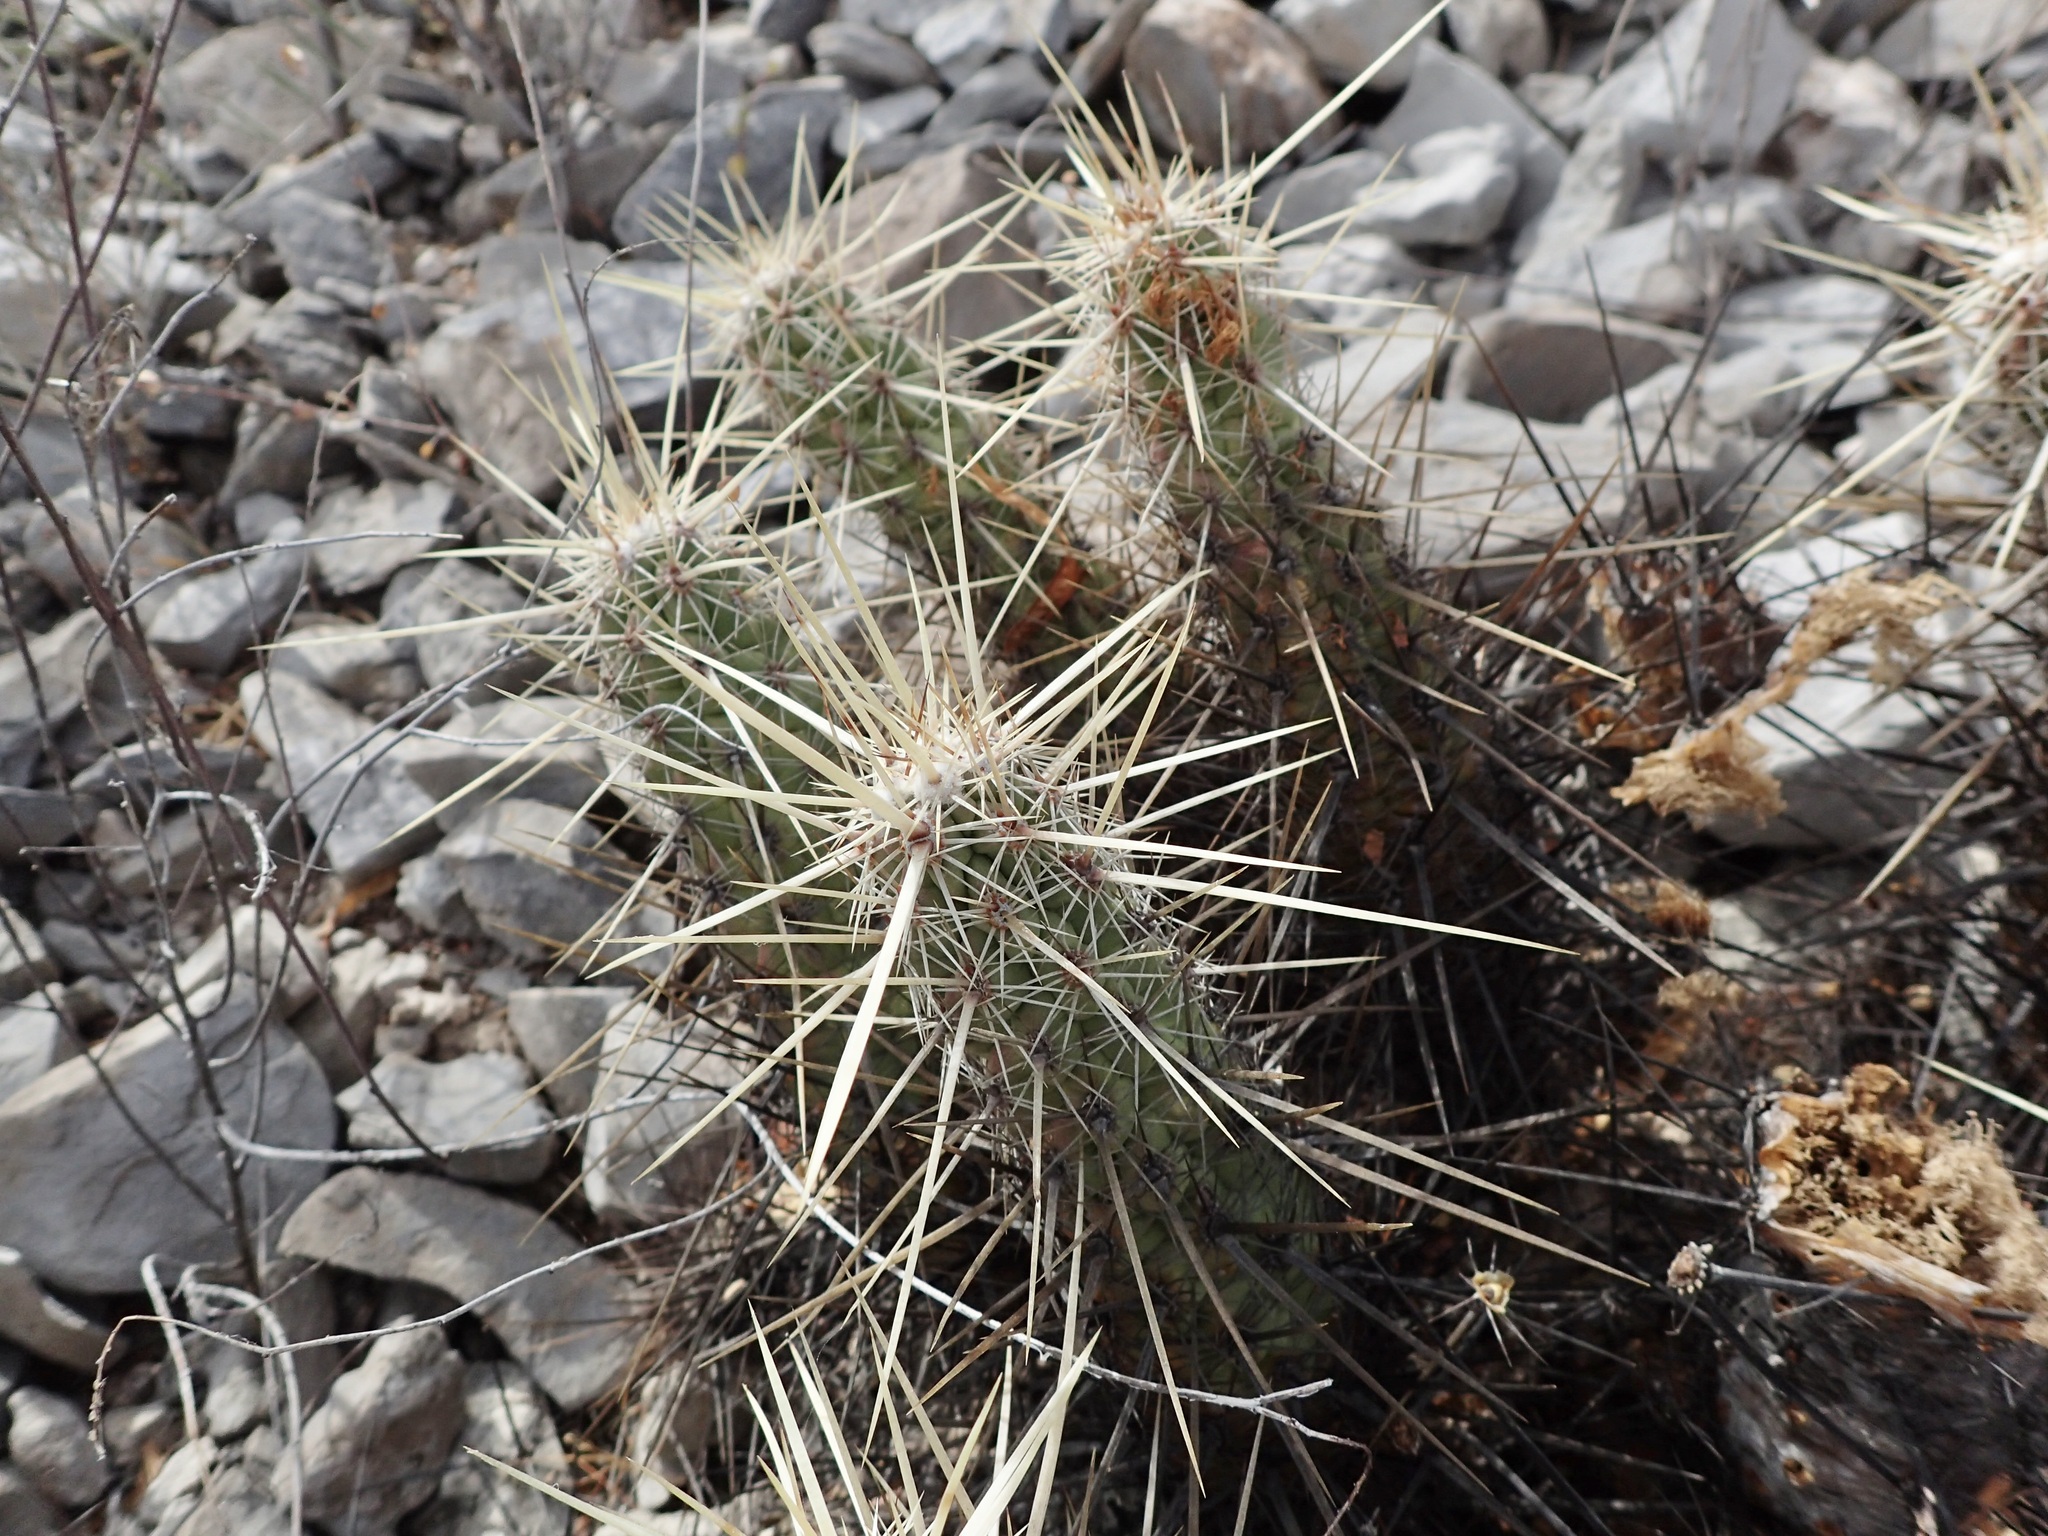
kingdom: Plantae
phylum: Tracheophyta
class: Magnoliopsida
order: Caryophyllales
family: Cactaceae
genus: Echinocereus
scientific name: Echinocereus brandegeei
